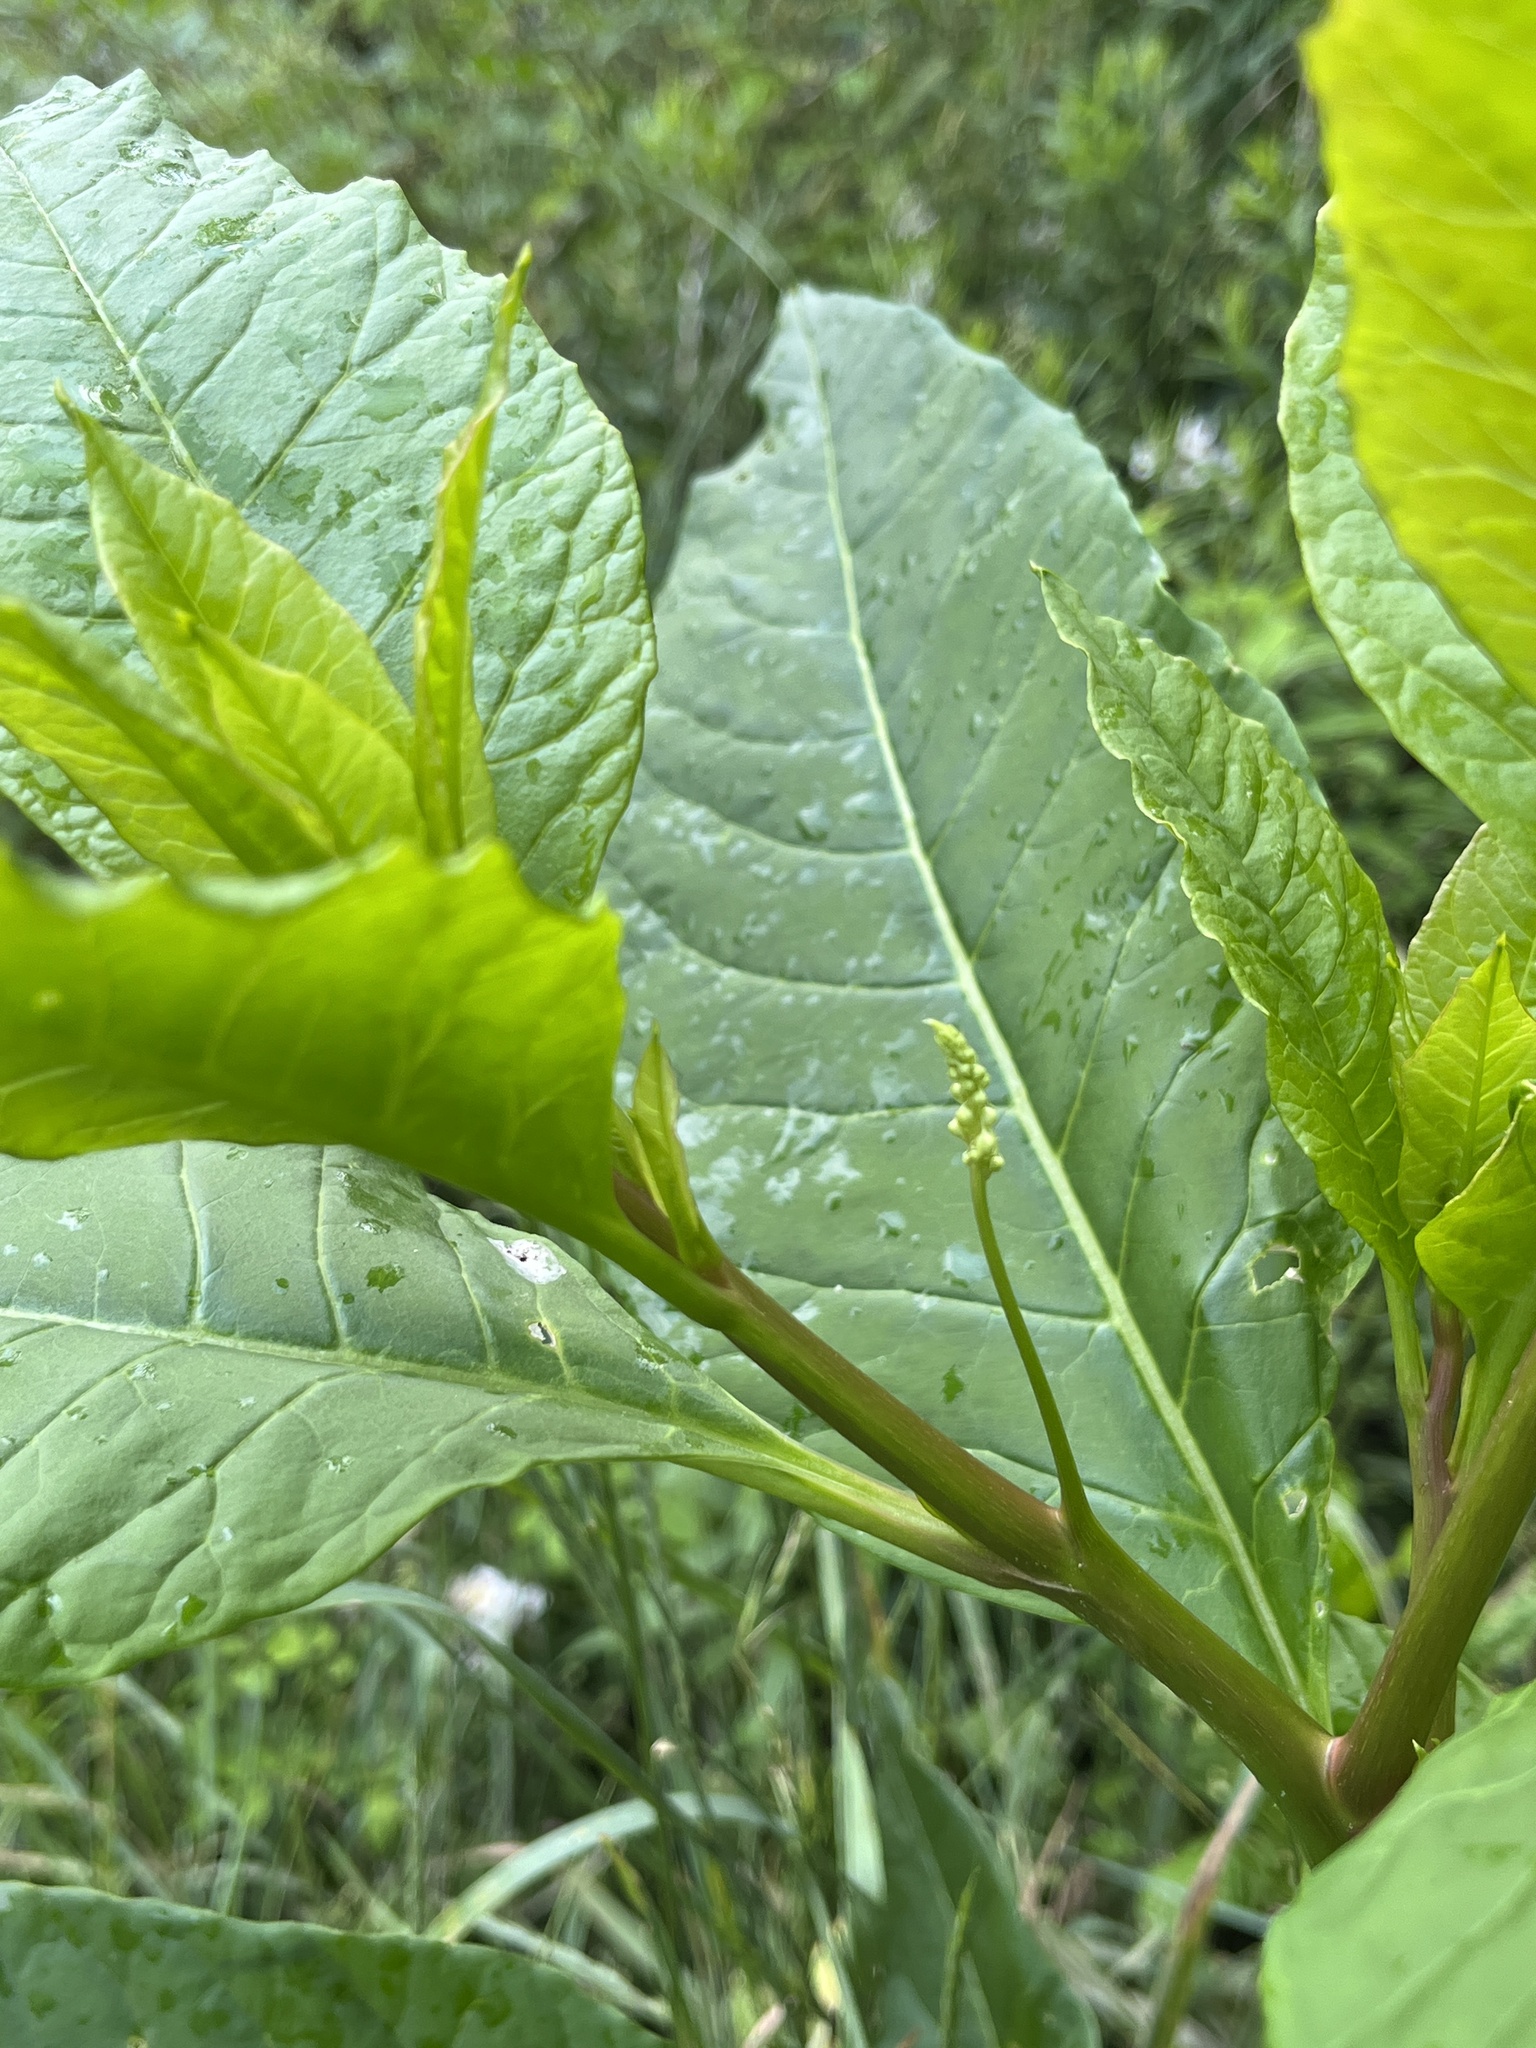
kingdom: Plantae
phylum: Tracheophyta
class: Magnoliopsida
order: Caryophyllales
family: Phytolaccaceae
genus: Phytolacca
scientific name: Phytolacca americana
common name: American pokeweed
